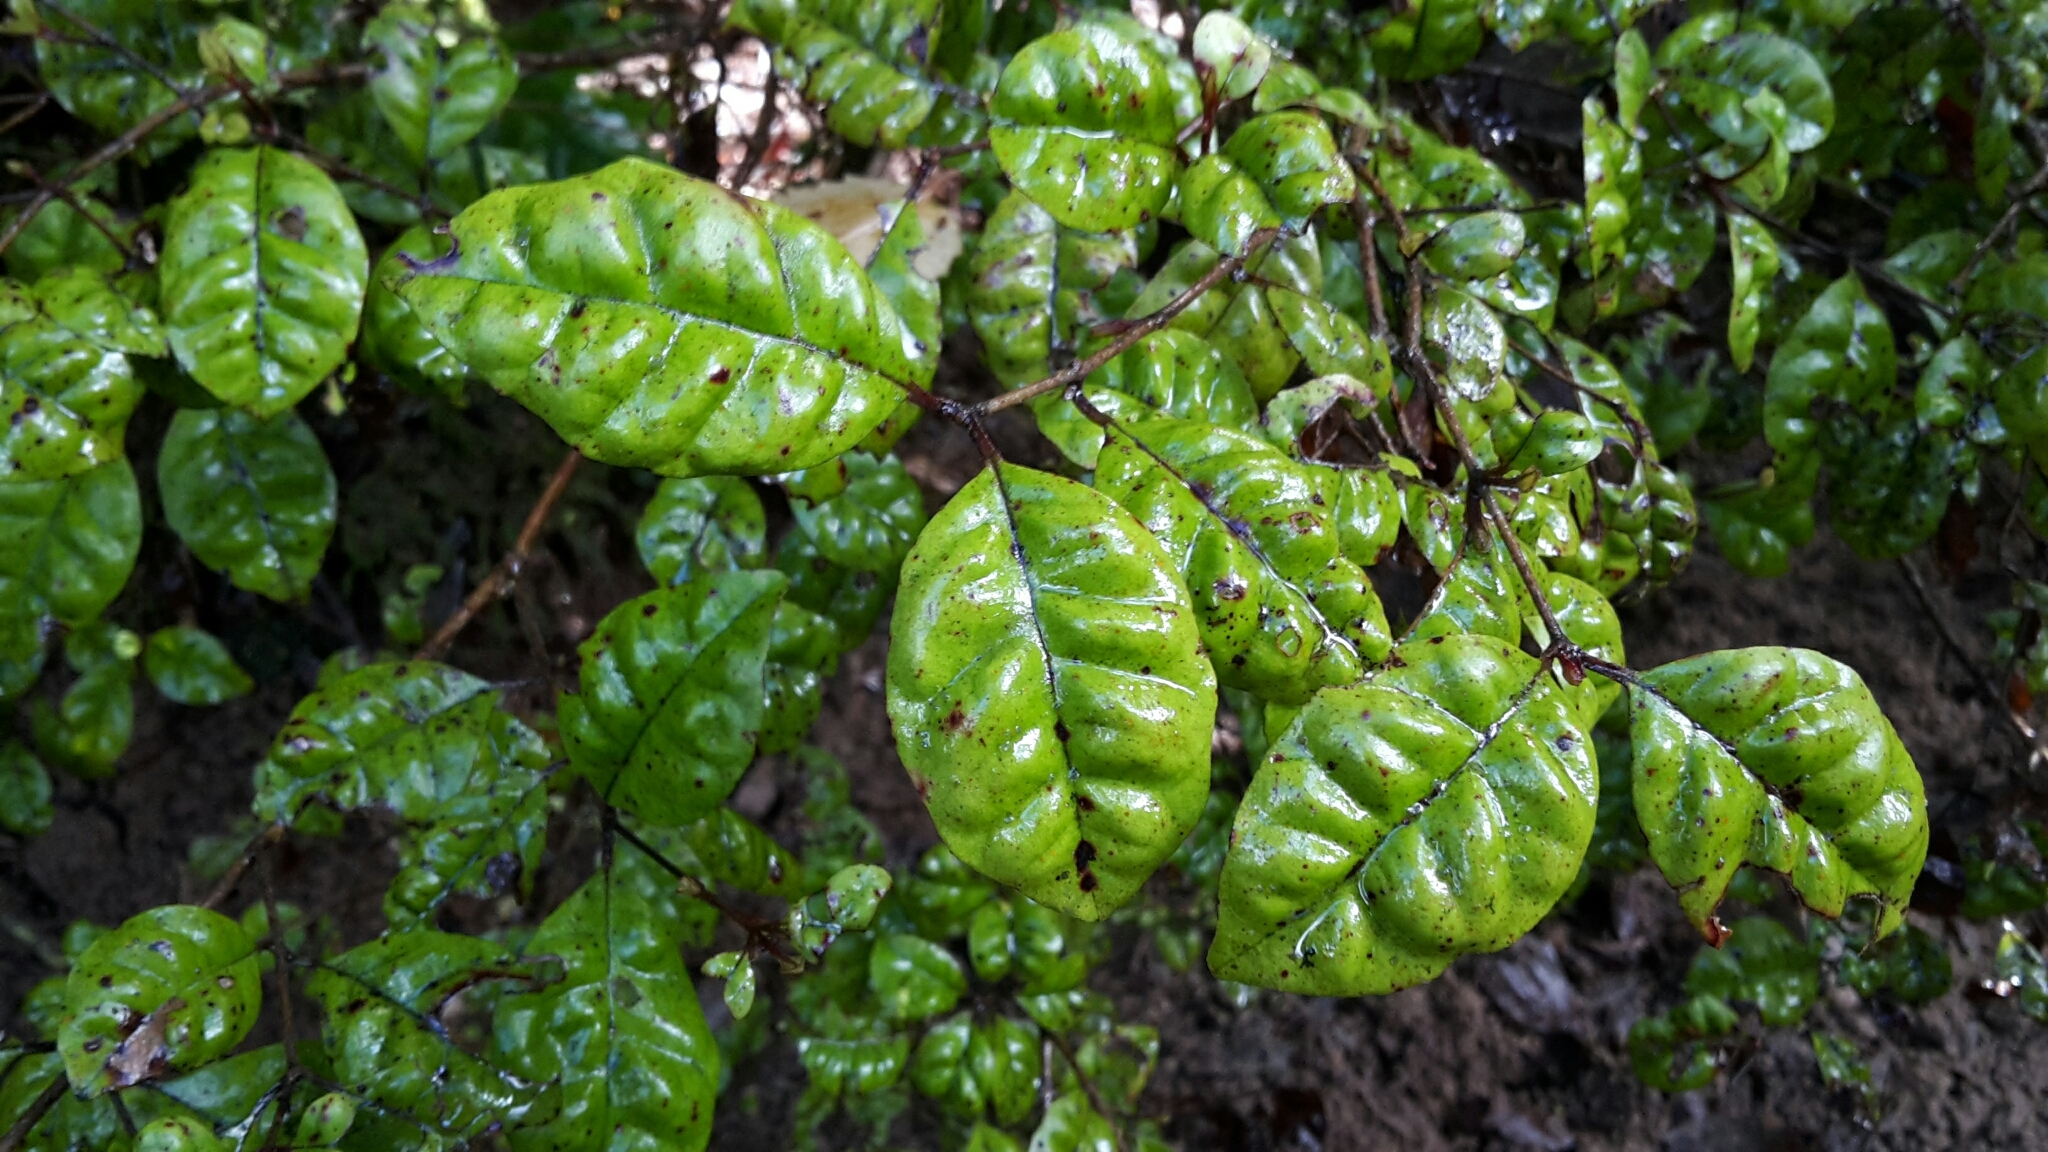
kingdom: Plantae
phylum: Tracheophyta
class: Magnoliopsida
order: Myrtales
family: Myrtaceae
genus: Lophomyrtus
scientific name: Lophomyrtus bullata
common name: Rama rama
